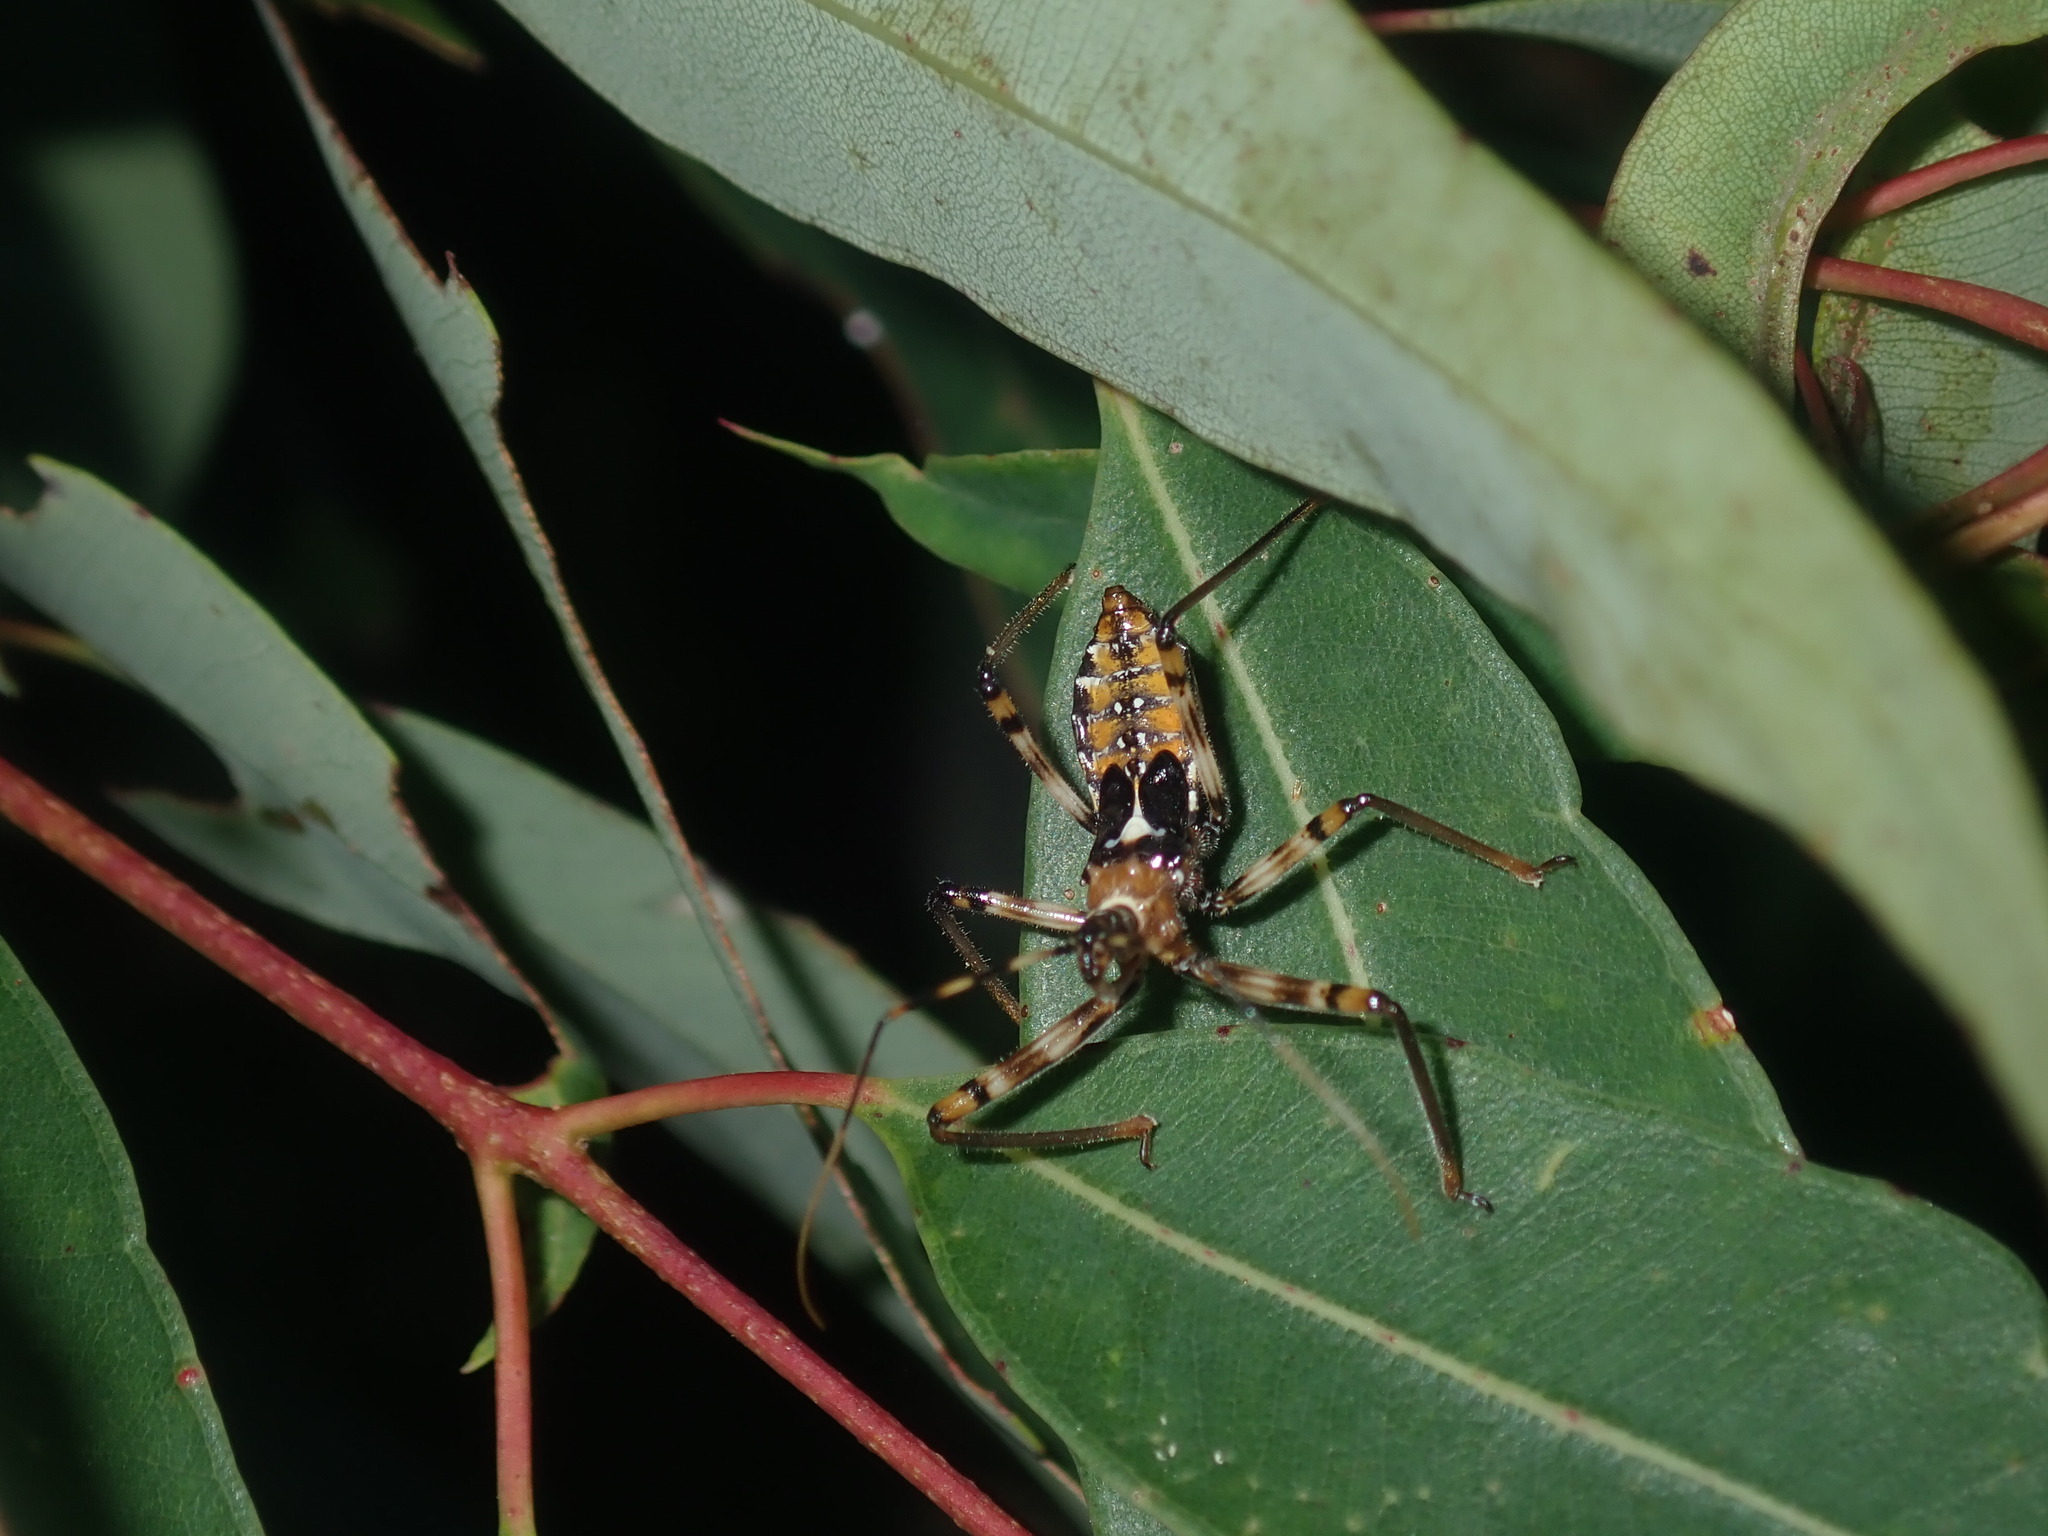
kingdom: Animalia
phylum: Arthropoda
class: Insecta
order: Hemiptera
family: Reduviidae
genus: Pristhesancus
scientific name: Pristhesancus plagipennis
